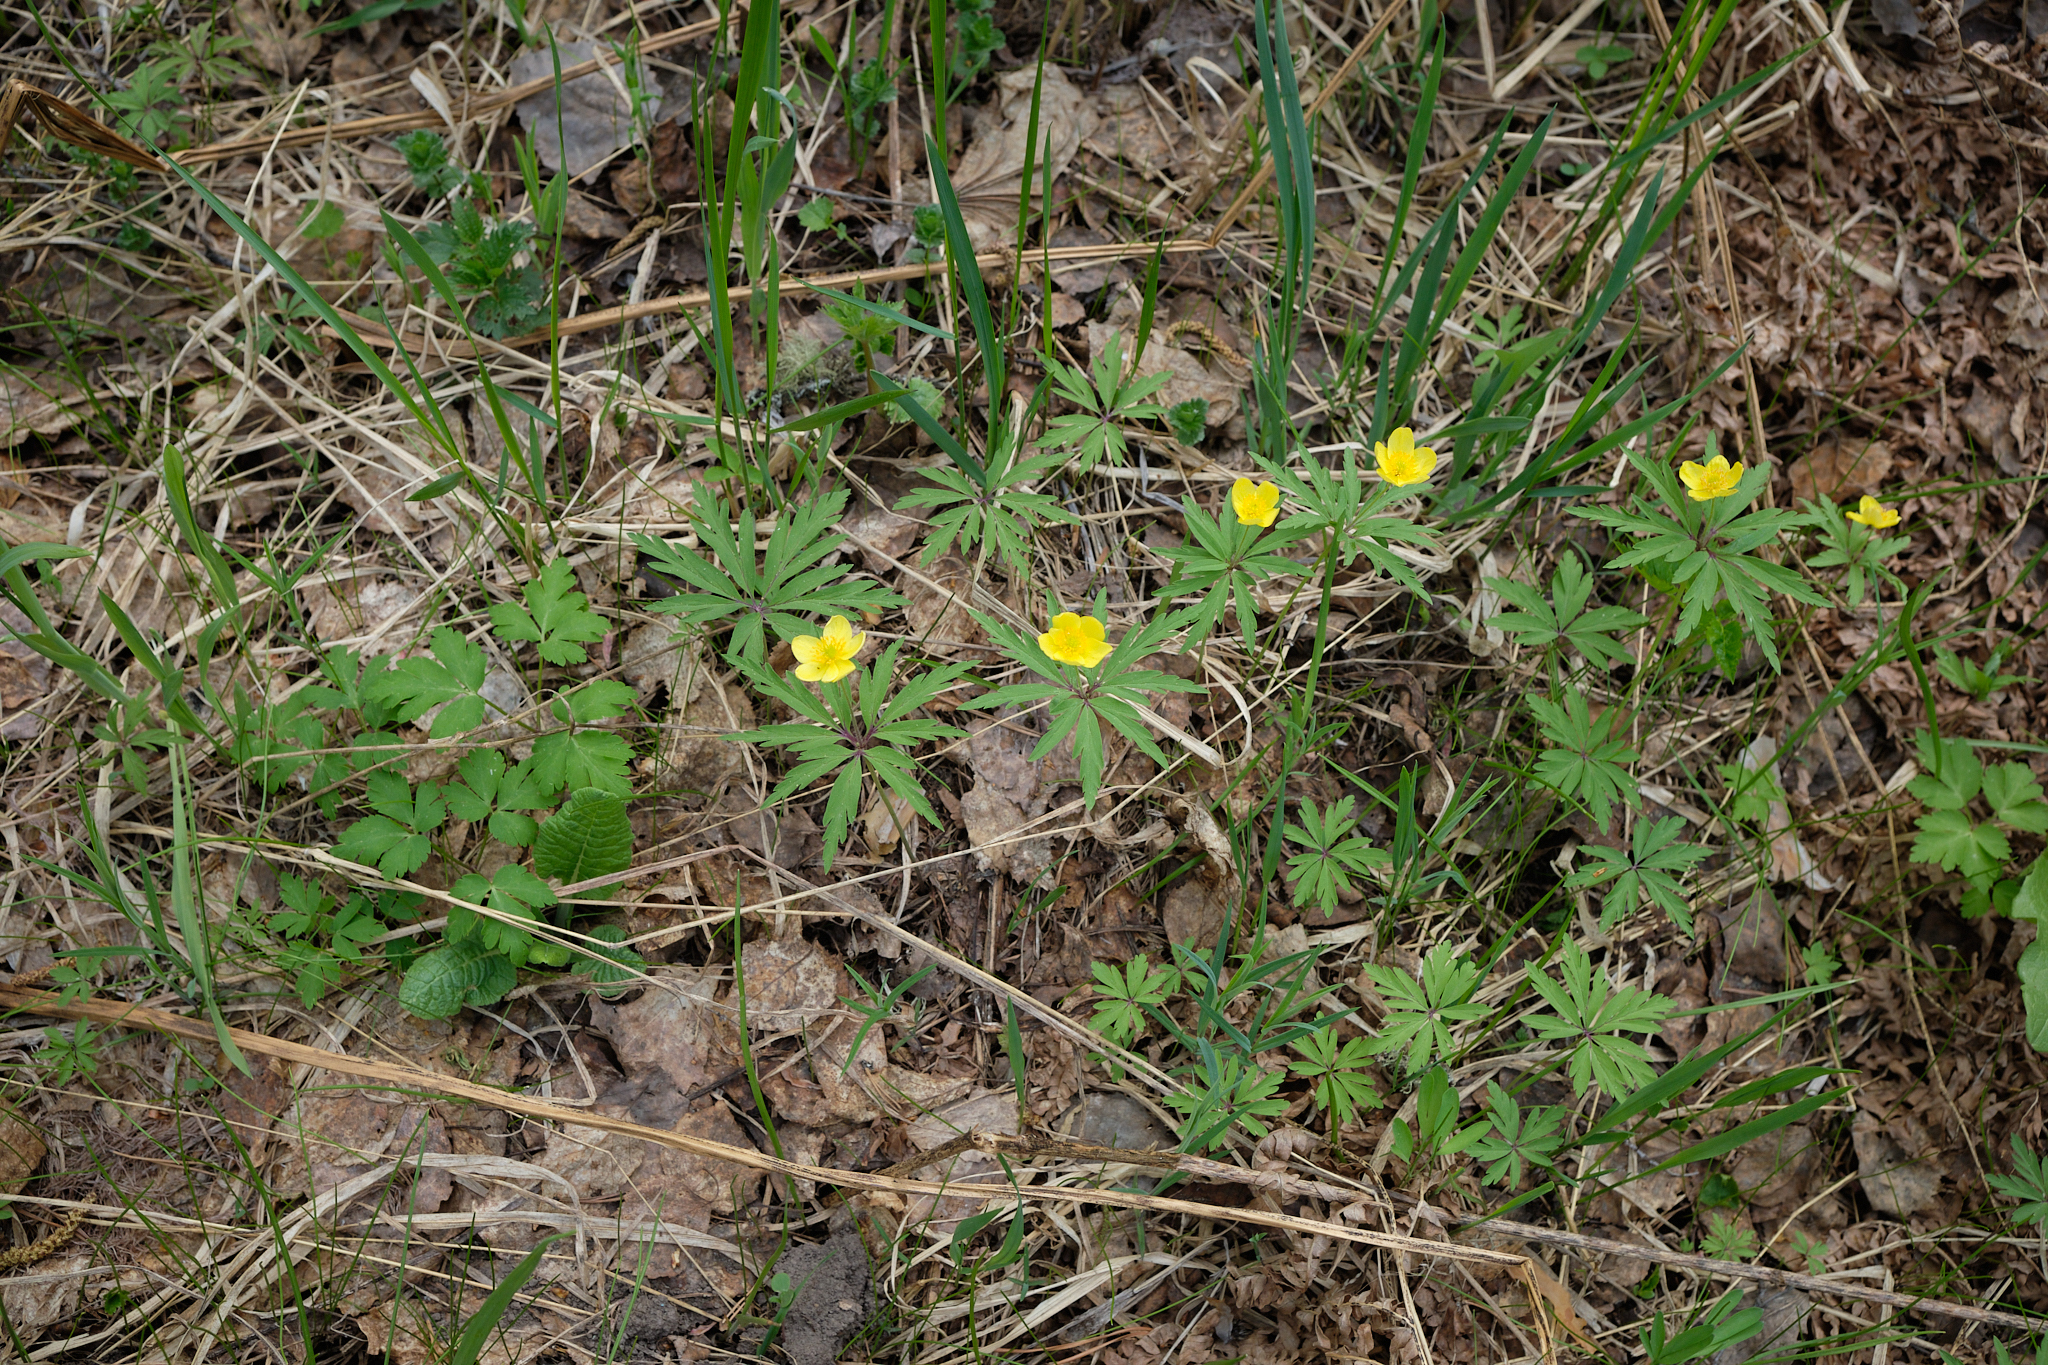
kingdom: Plantae
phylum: Tracheophyta
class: Magnoliopsida
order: Ranunculales
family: Ranunculaceae
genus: Anemone
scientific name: Anemone ranunculoides
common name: Yellow anemone
